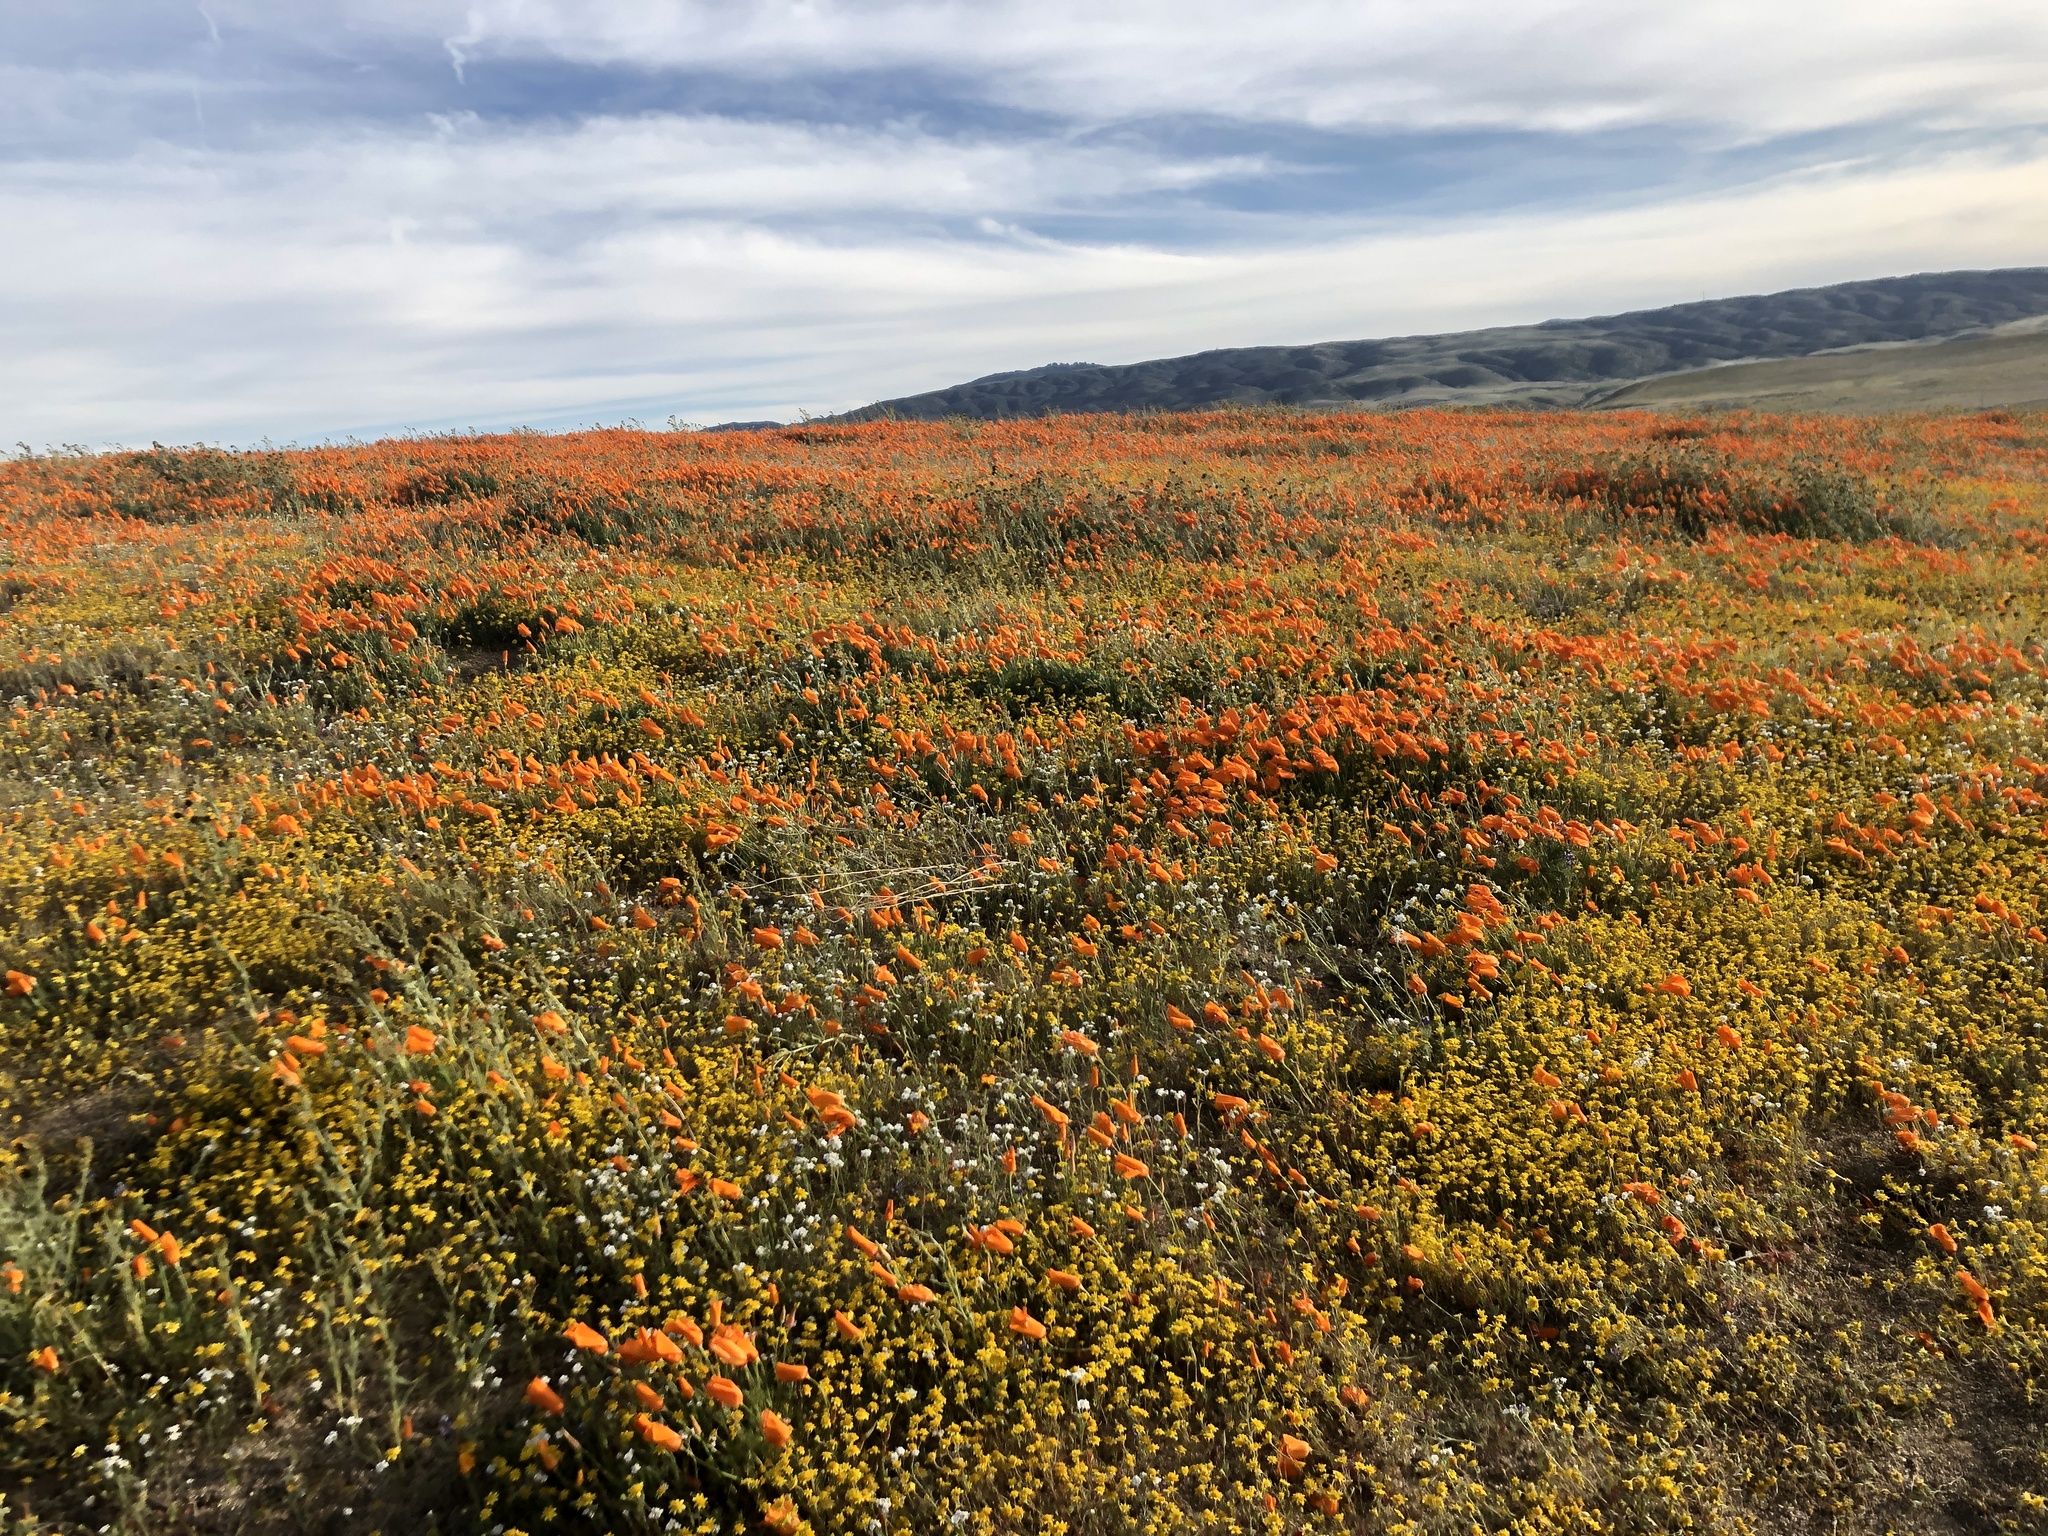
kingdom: Plantae
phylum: Tracheophyta
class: Magnoliopsida
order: Ranunculales
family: Papaveraceae
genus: Eschscholzia
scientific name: Eschscholzia californica
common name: California poppy
